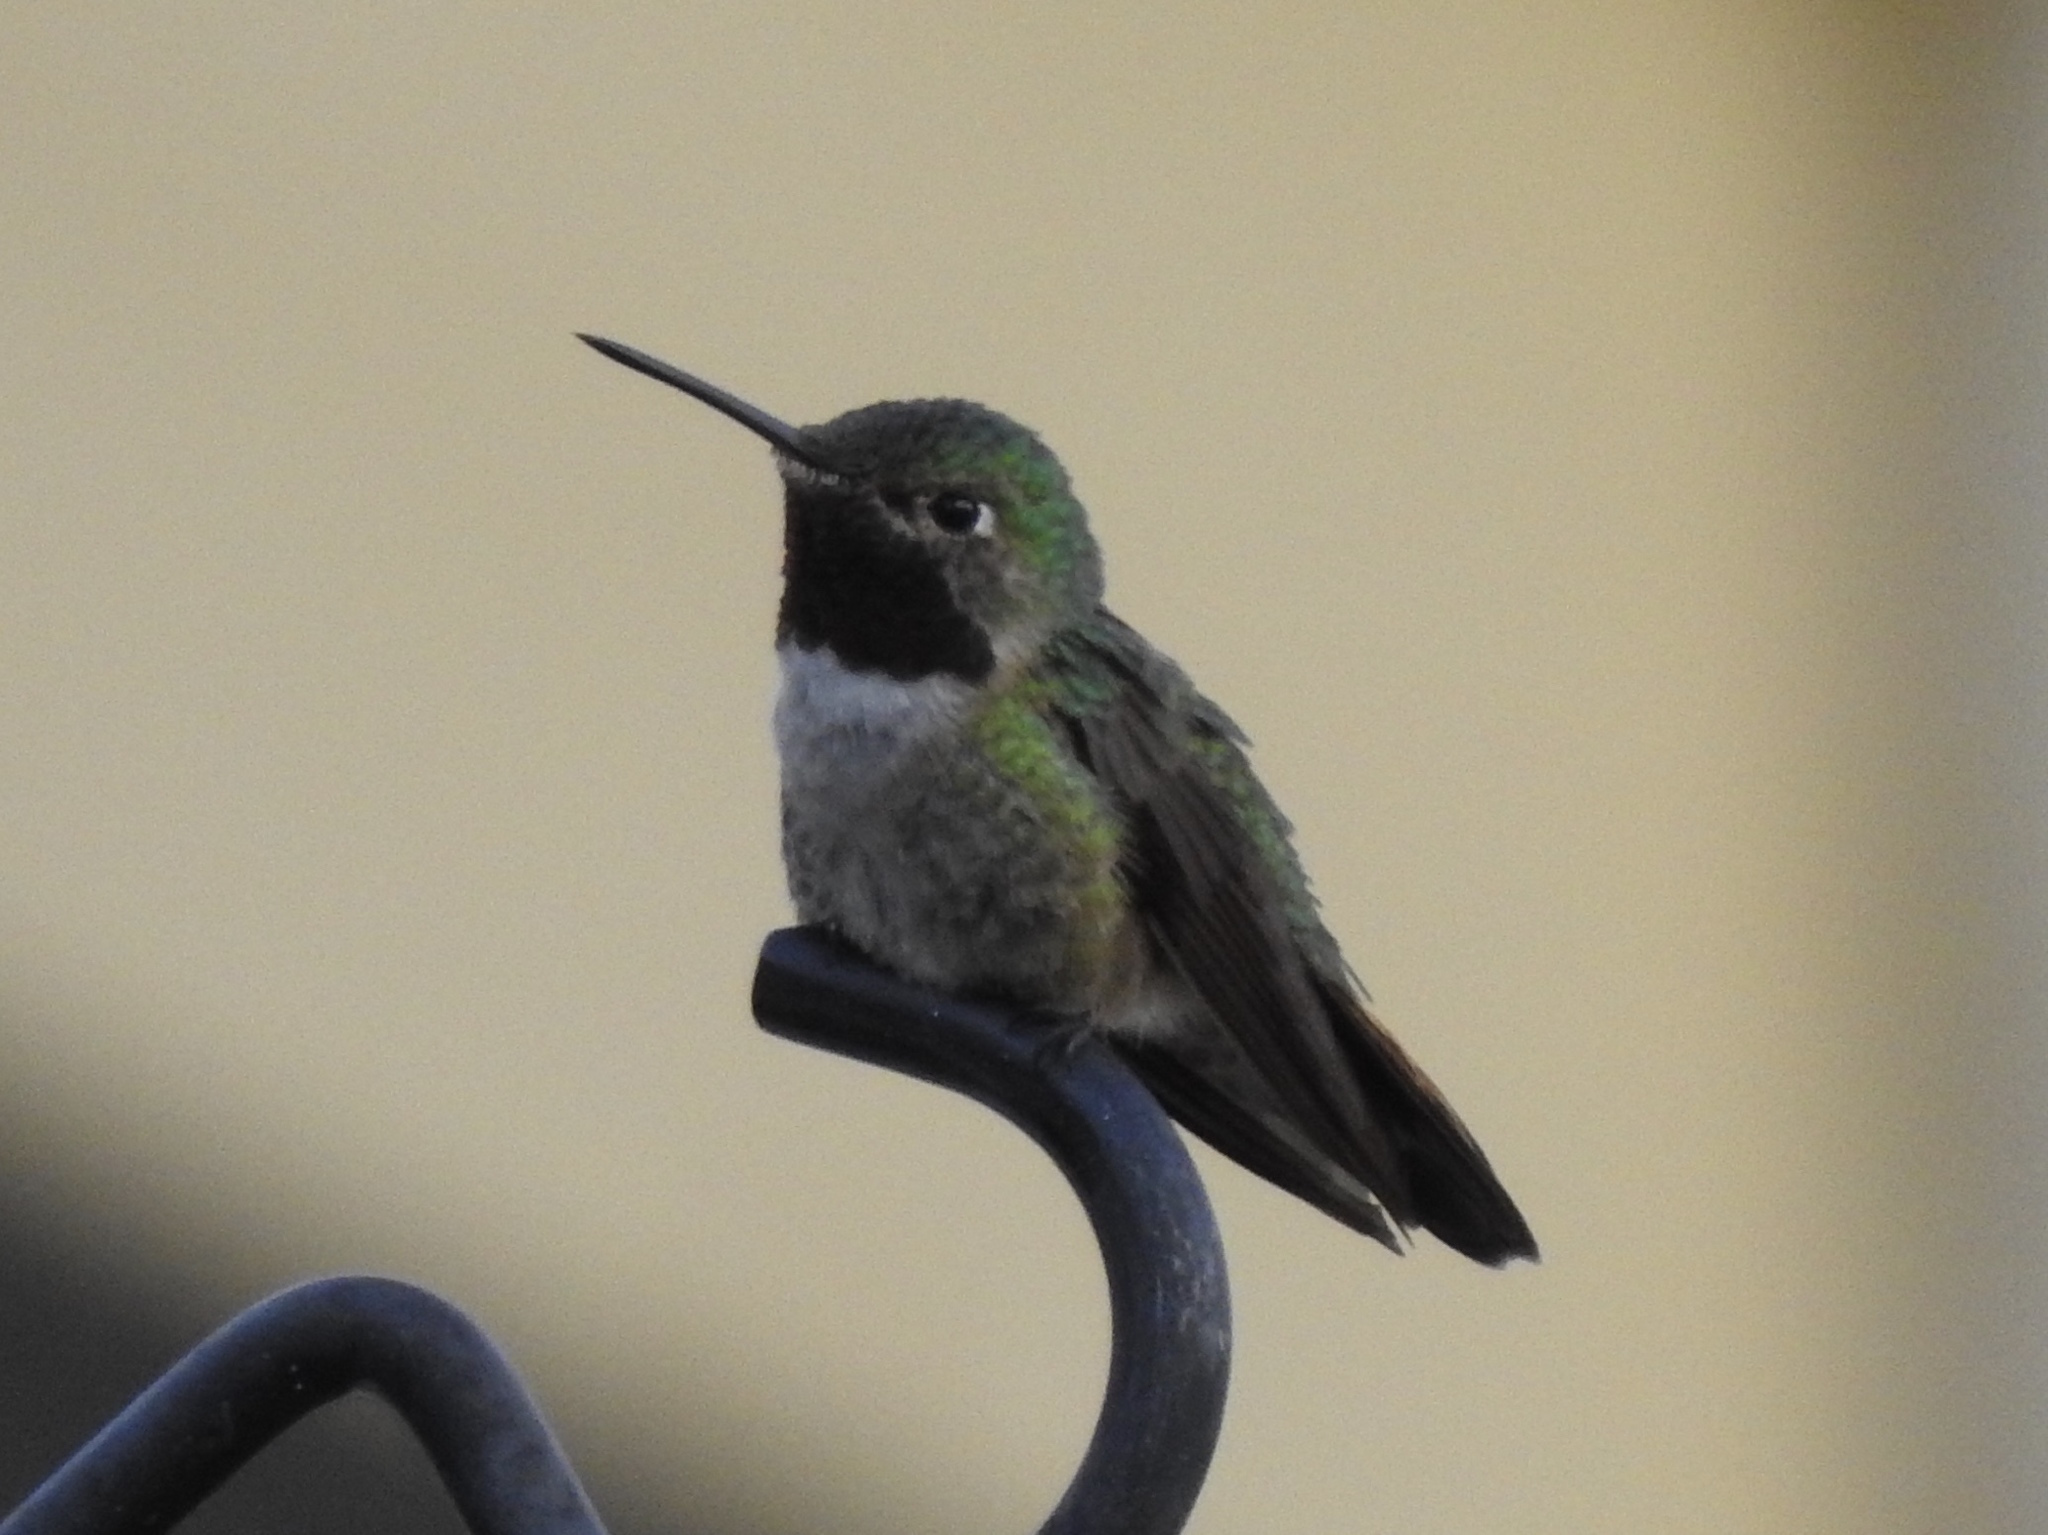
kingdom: Animalia
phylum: Chordata
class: Aves
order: Apodiformes
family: Trochilidae
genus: Selasphorus
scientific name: Selasphorus platycercus
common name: Broad-tailed hummingbird
